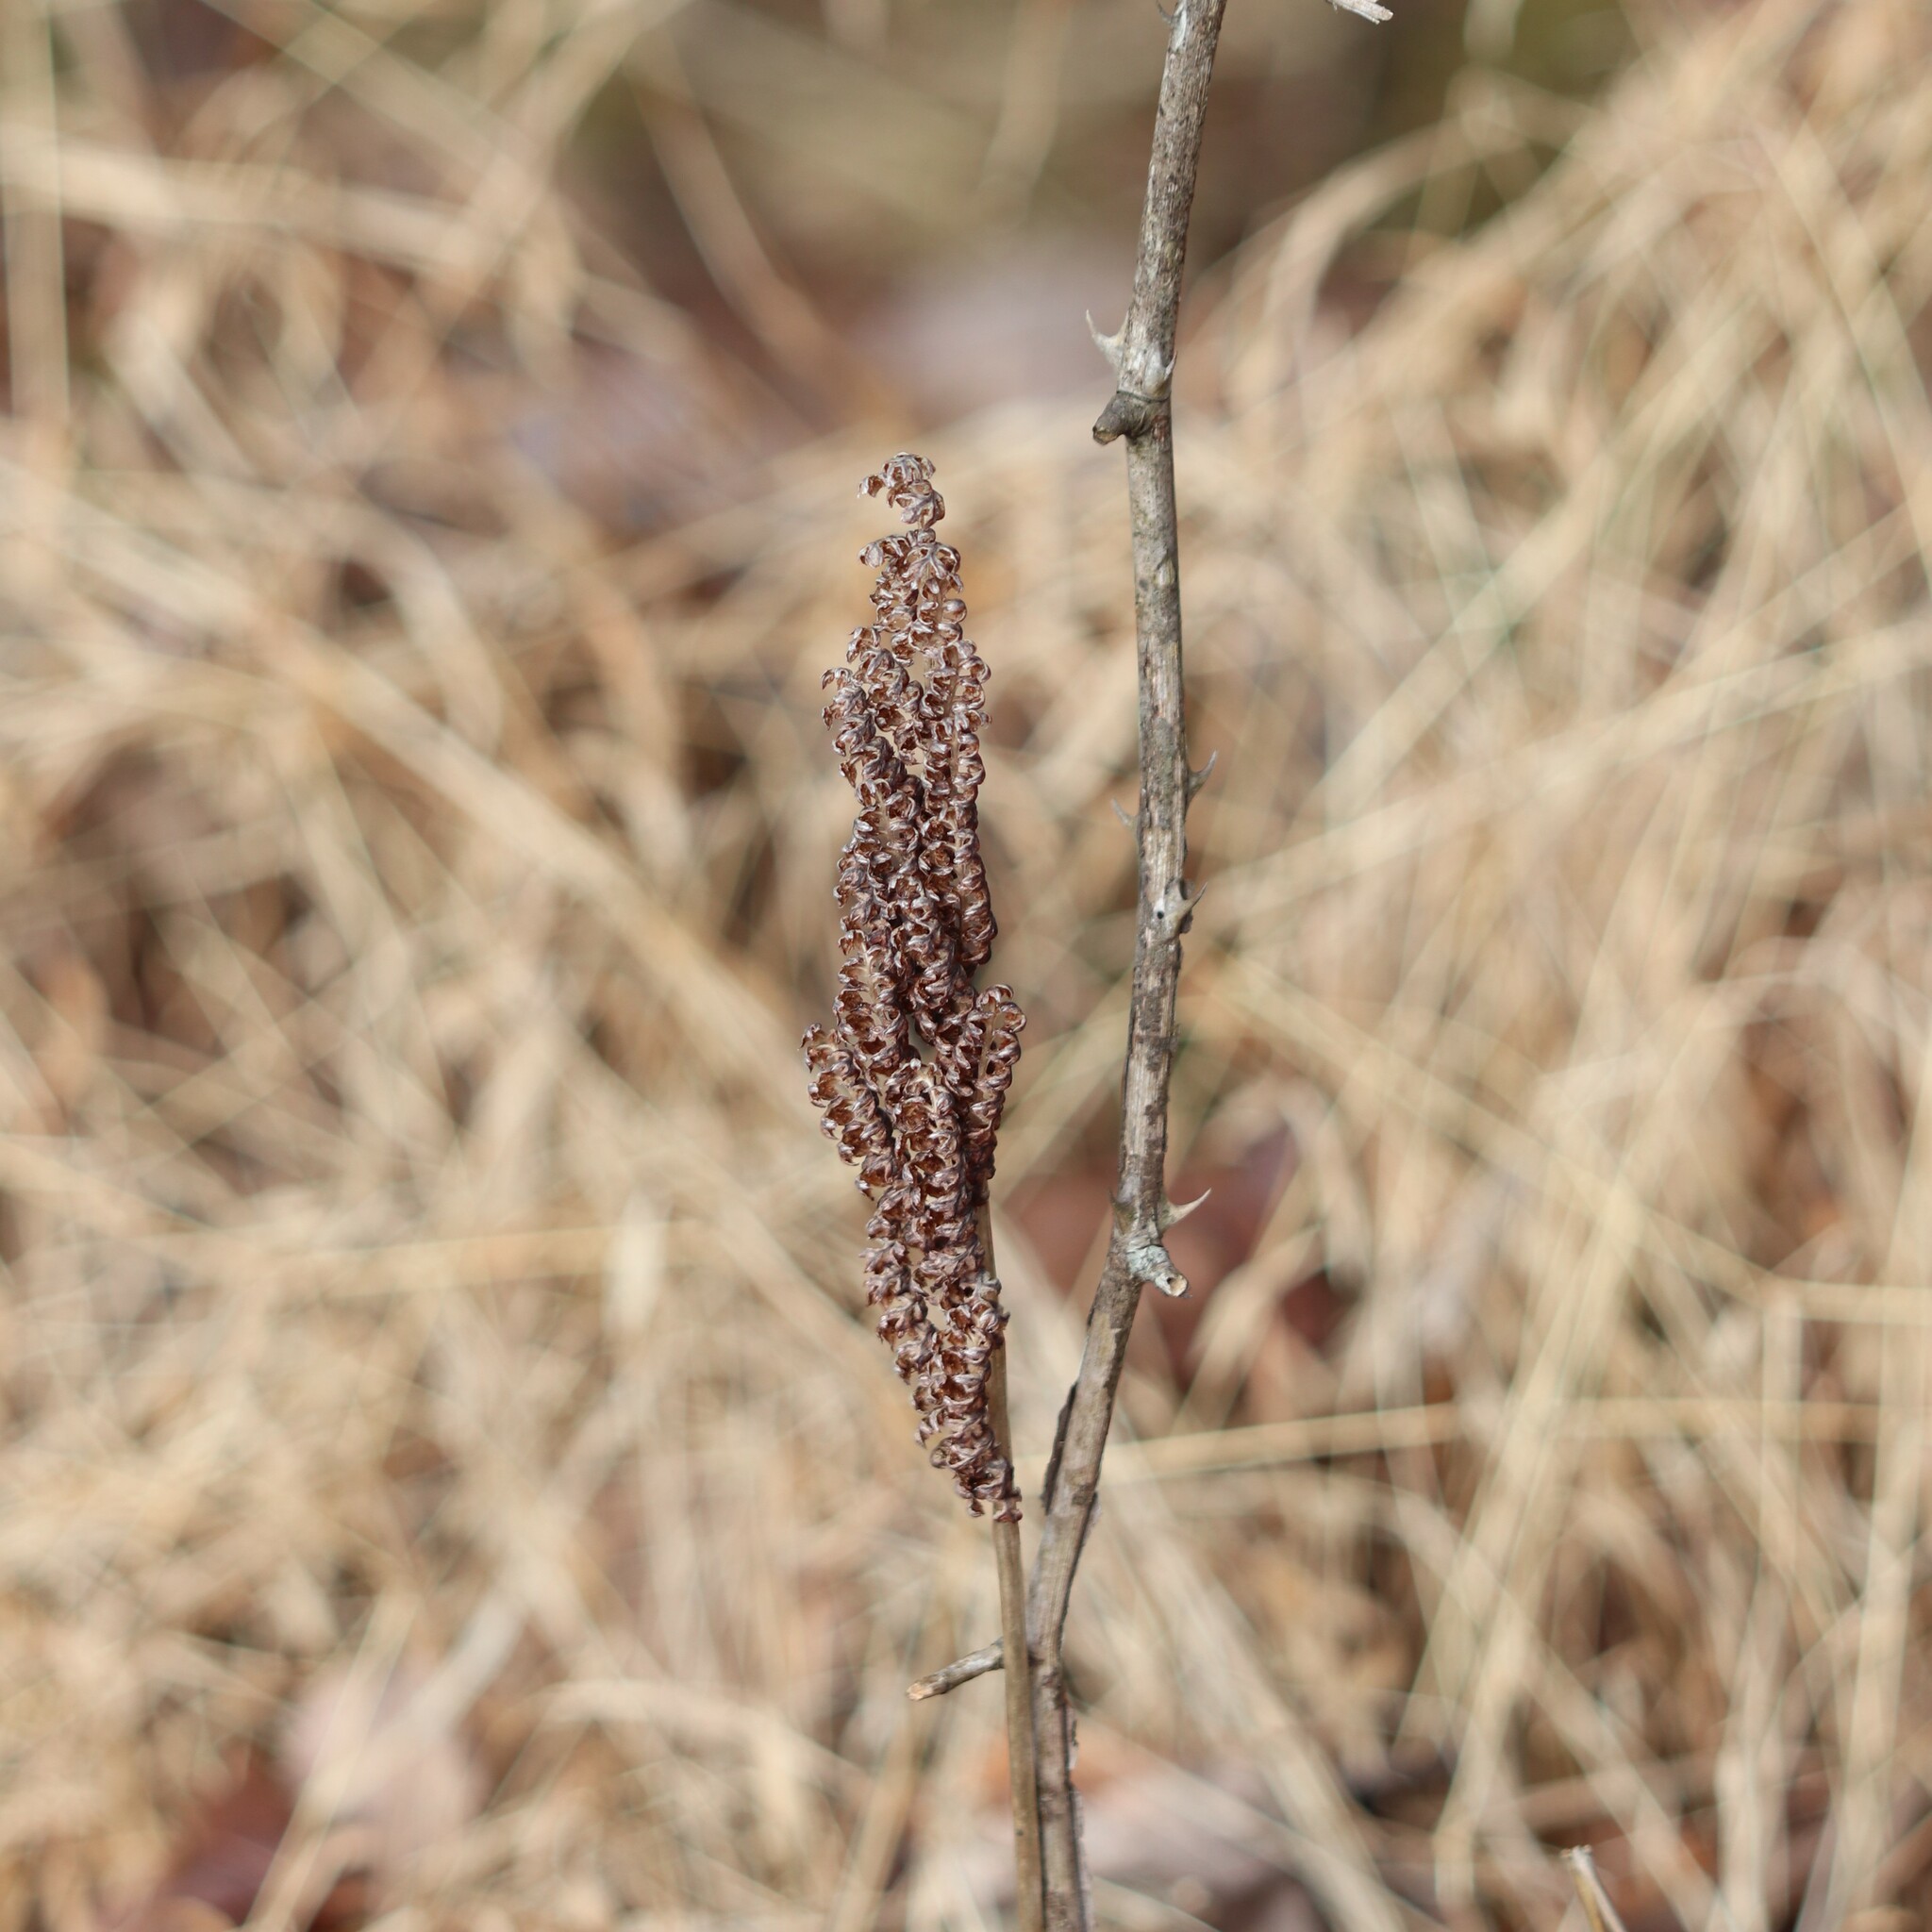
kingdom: Plantae
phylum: Tracheophyta
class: Polypodiopsida
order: Polypodiales
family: Onocleaceae
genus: Onoclea
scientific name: Onoclea sensibilis
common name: Sensitive fern
